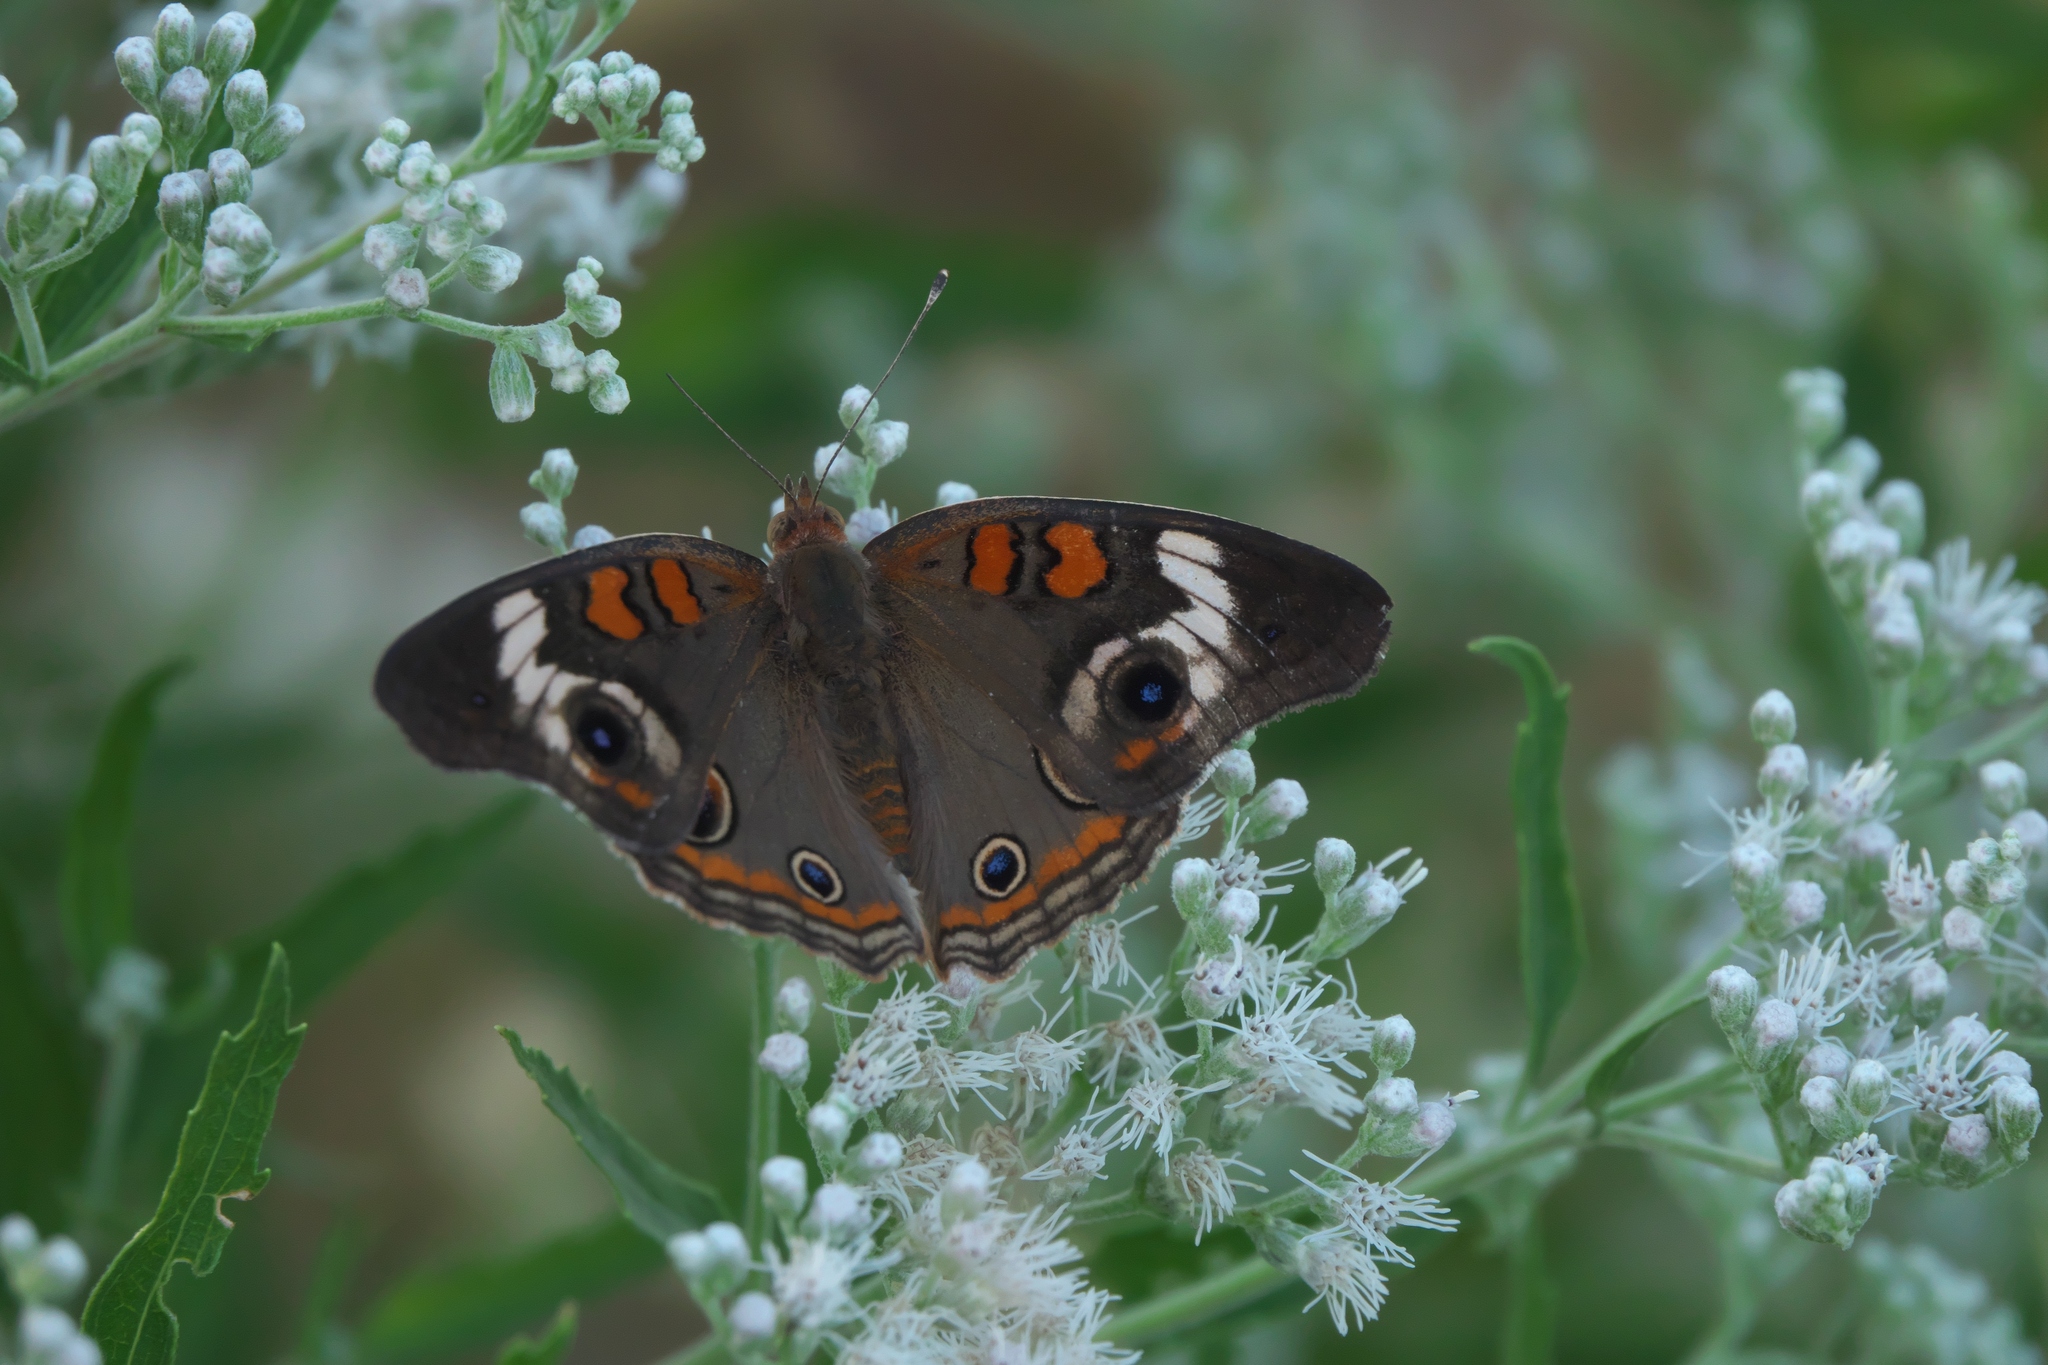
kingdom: Animalia
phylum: Arthropoda
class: Insecta
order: Lepidoptera
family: Nymphalidae
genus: Junonia
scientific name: Junonia coenia
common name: Common buckeye
